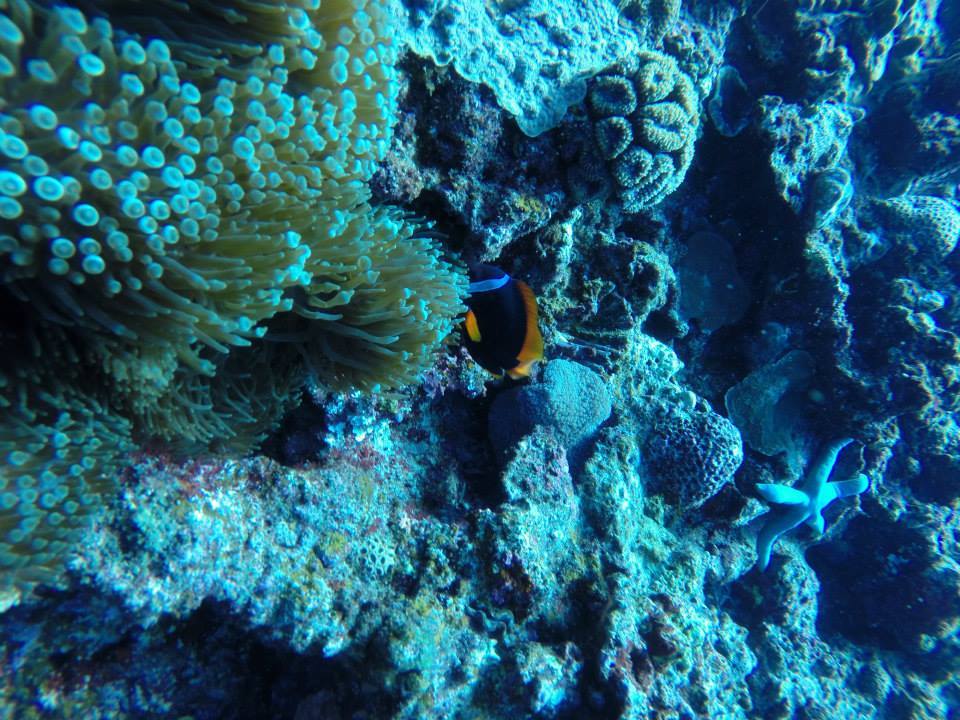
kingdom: Animalia
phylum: Cnidaria
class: Anthozoa
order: Actiniaria
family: Actiniidae
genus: Entacmaea
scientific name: Entacmaea quadricolor
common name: Bulb tentacle sea anemone
